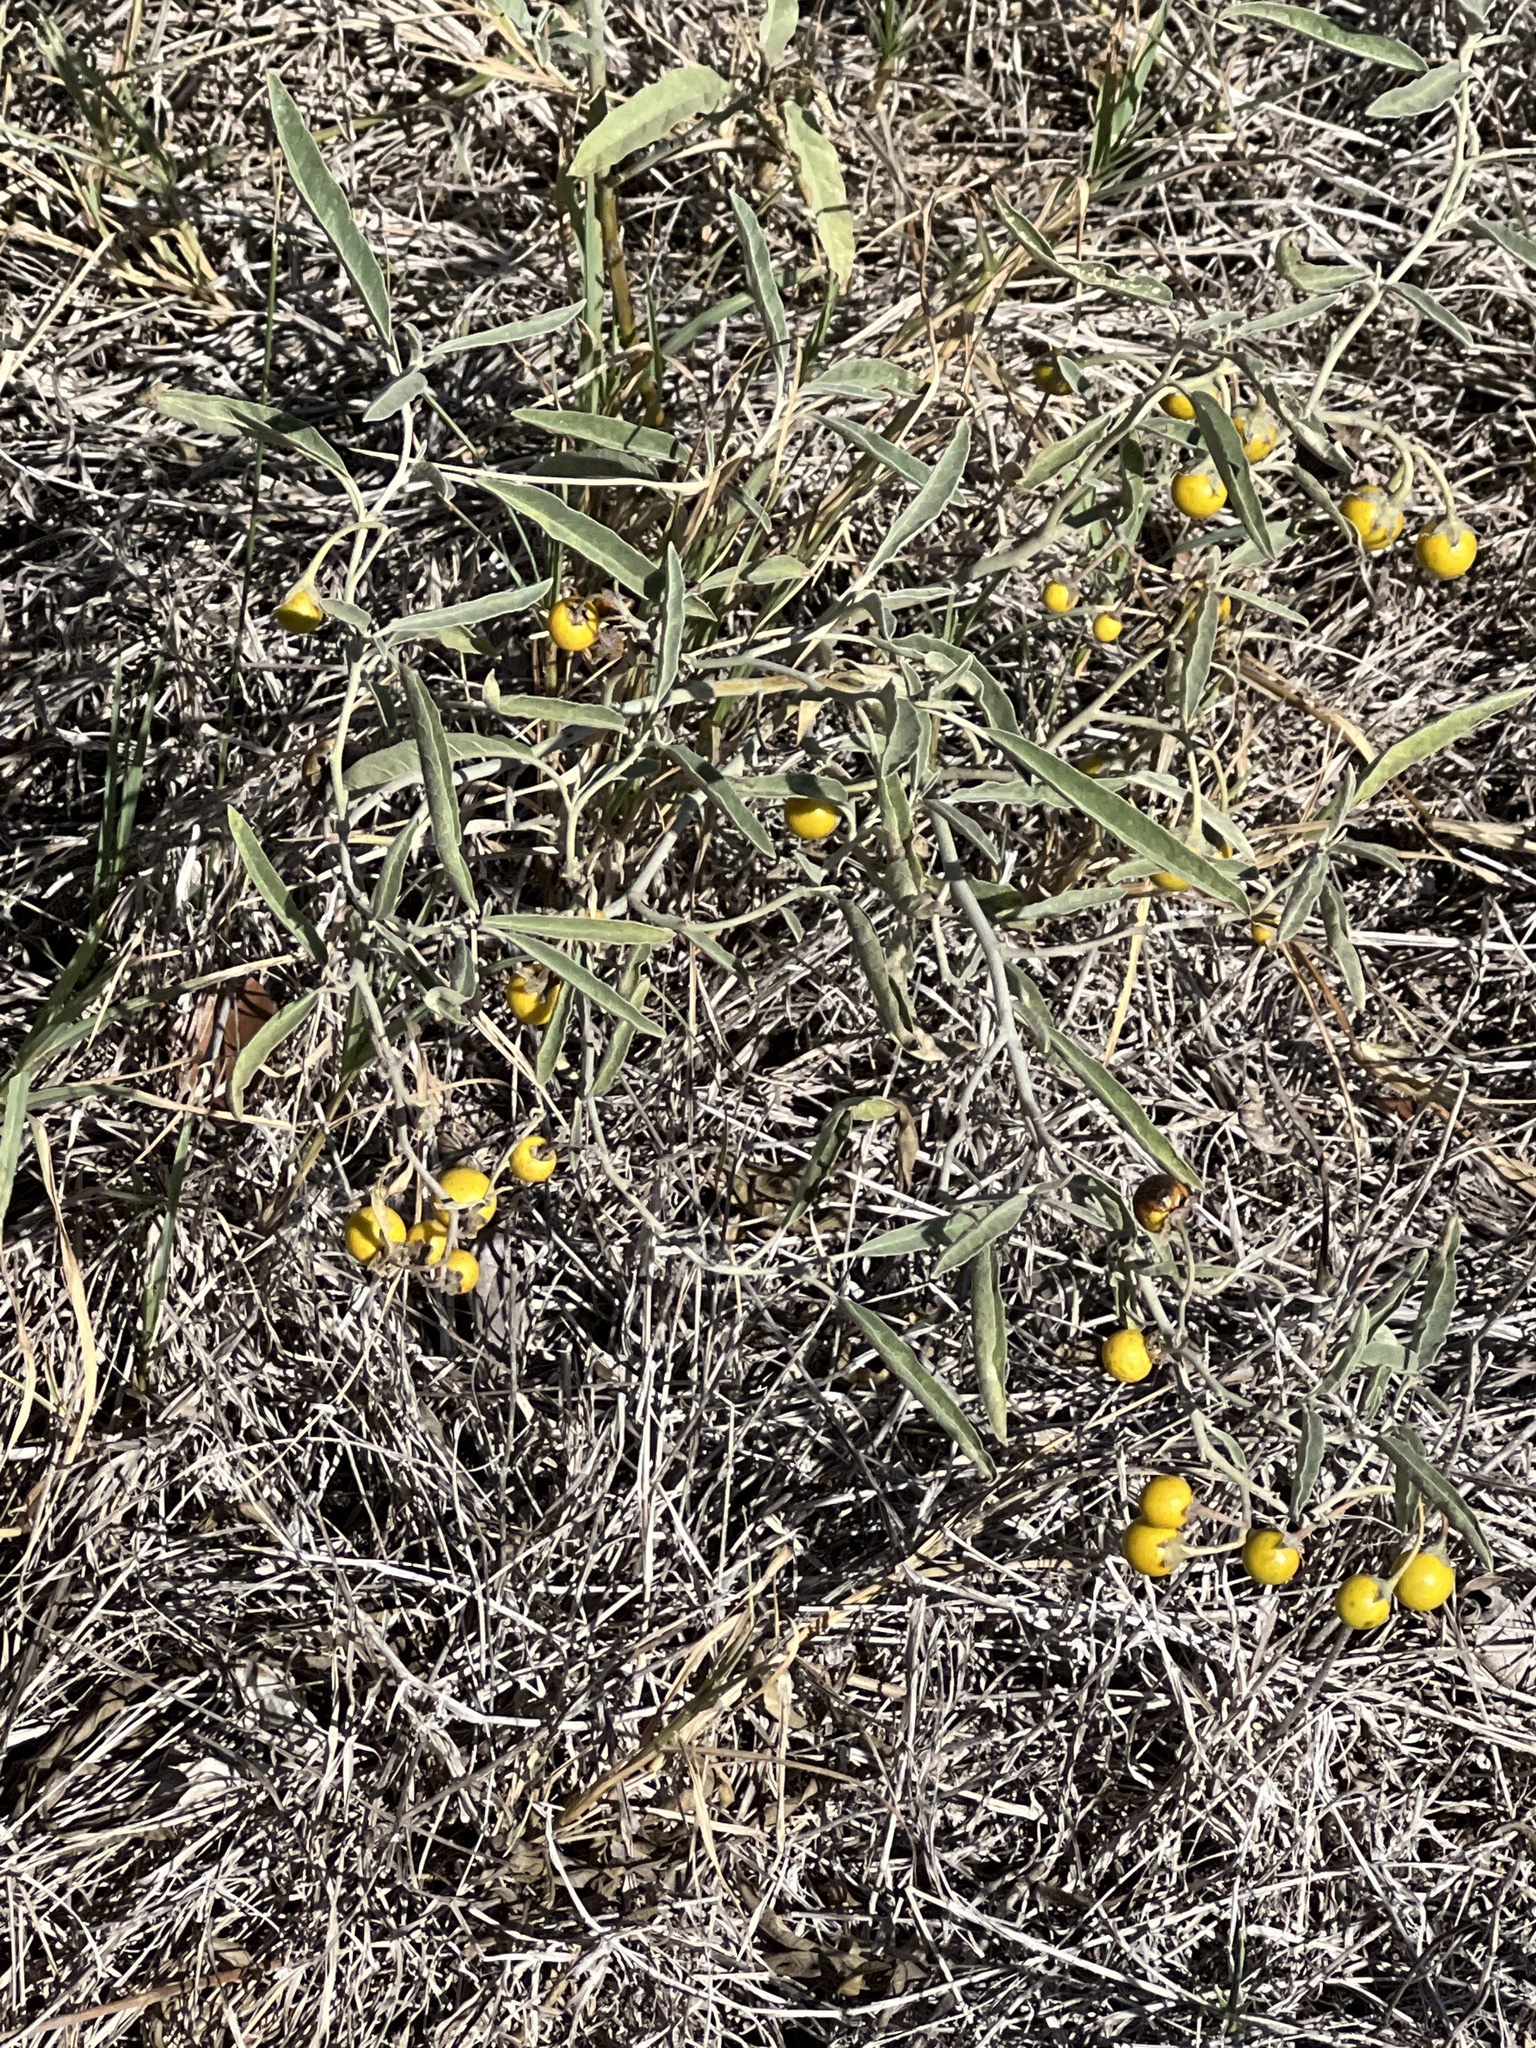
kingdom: Plantae
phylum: Tracheophyta
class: Magnoliopsida
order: Solanales
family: Solanaceae
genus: Solanum
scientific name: Solanum elaeagnifolium
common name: Silverleaf nightshade
